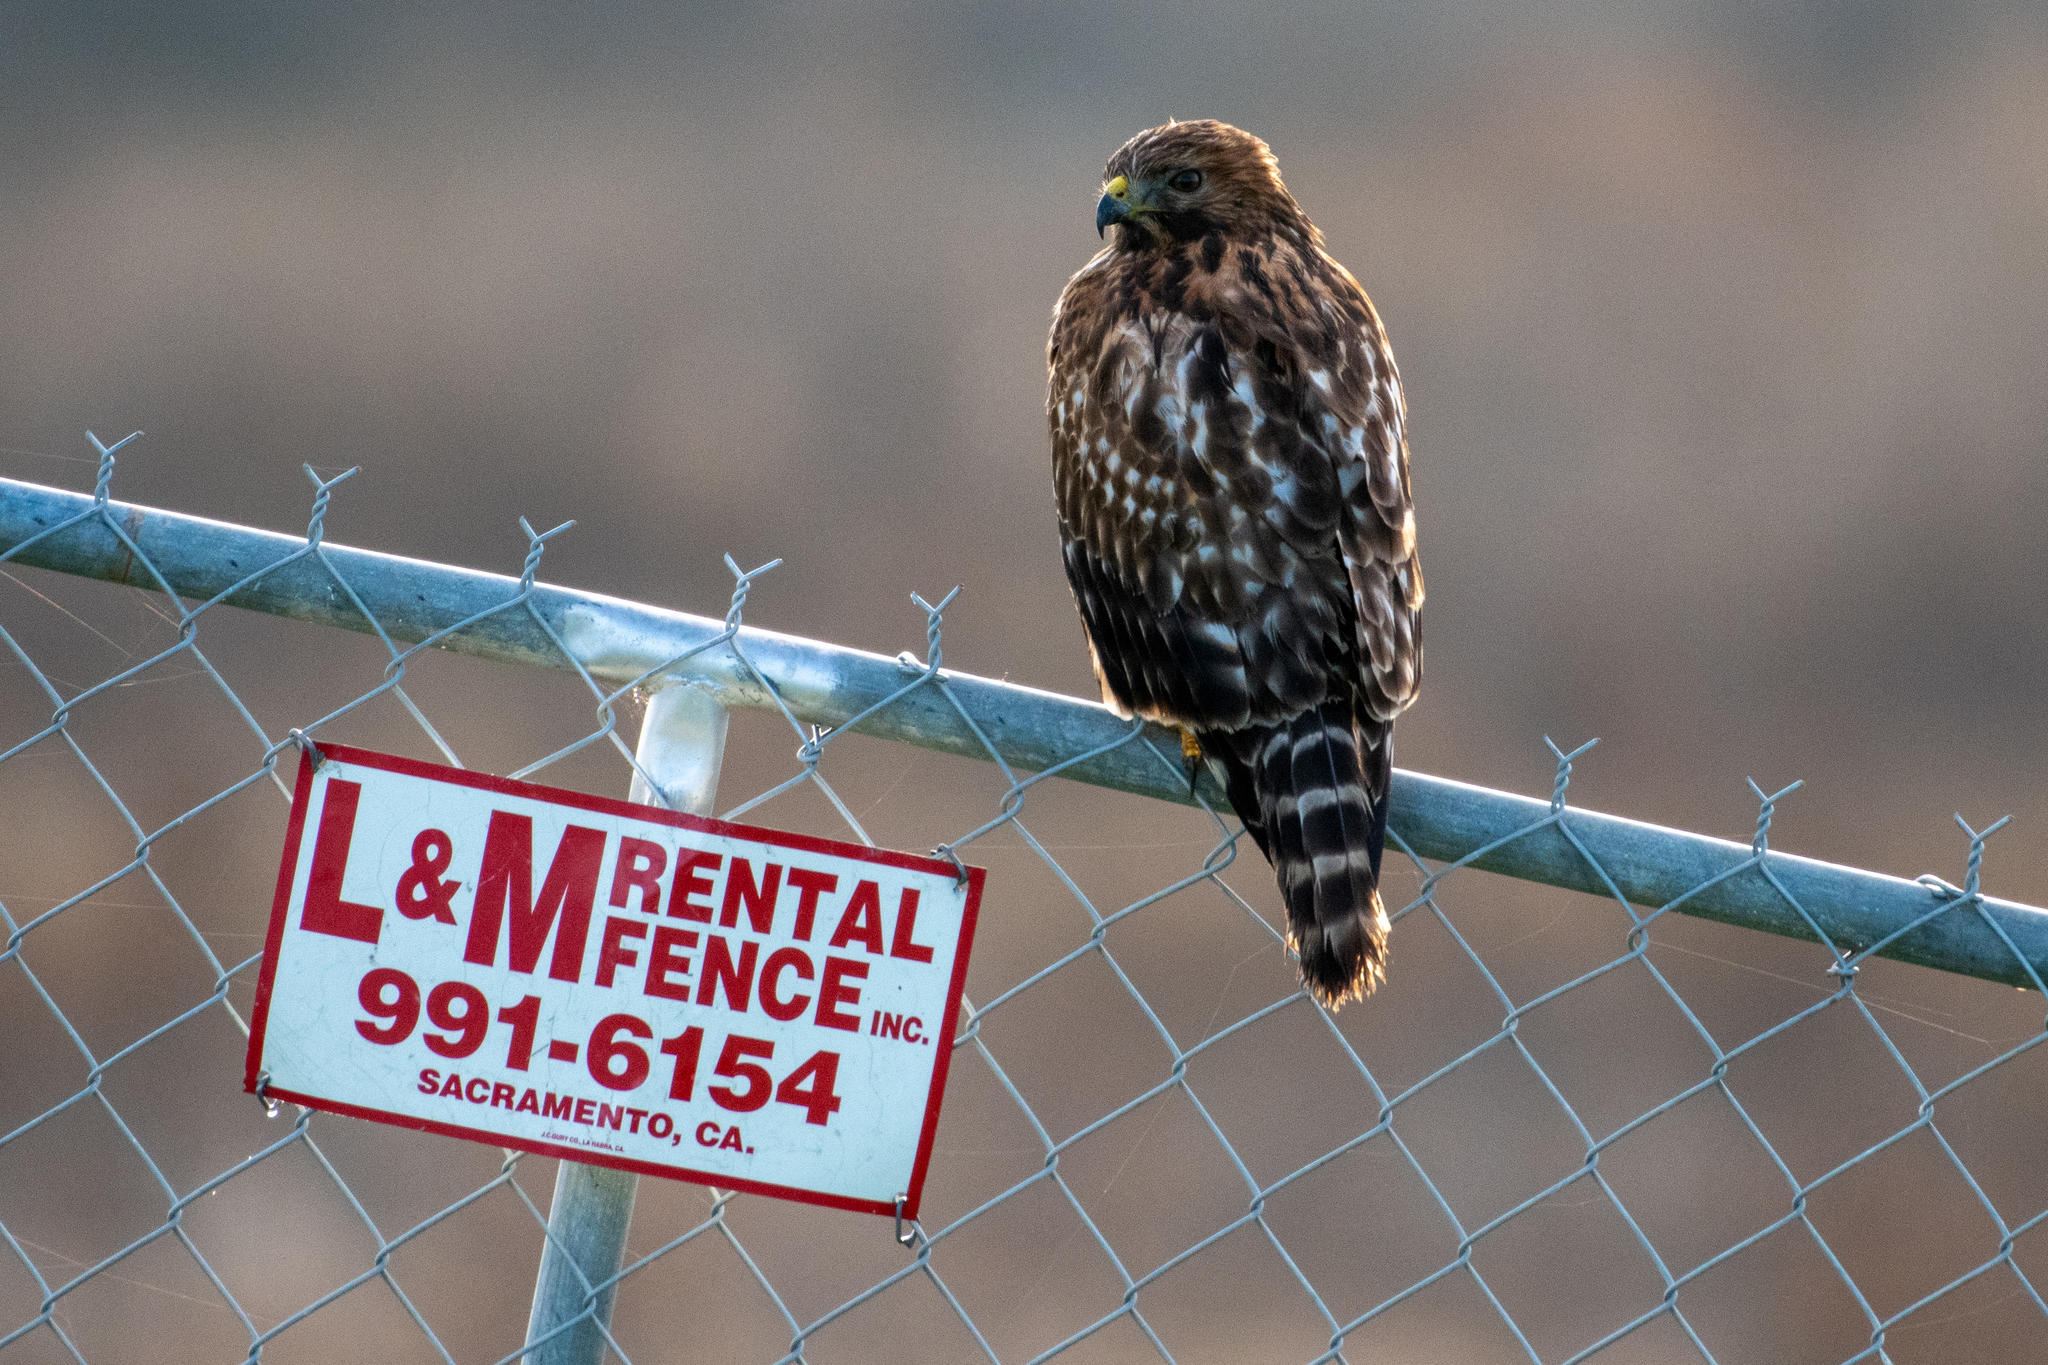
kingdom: Animalia
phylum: Chordata
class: Aves
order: Accipitriformes
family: Accipitridae
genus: Buteo
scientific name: Buteo lineatus
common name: Red-shouldered hawk
